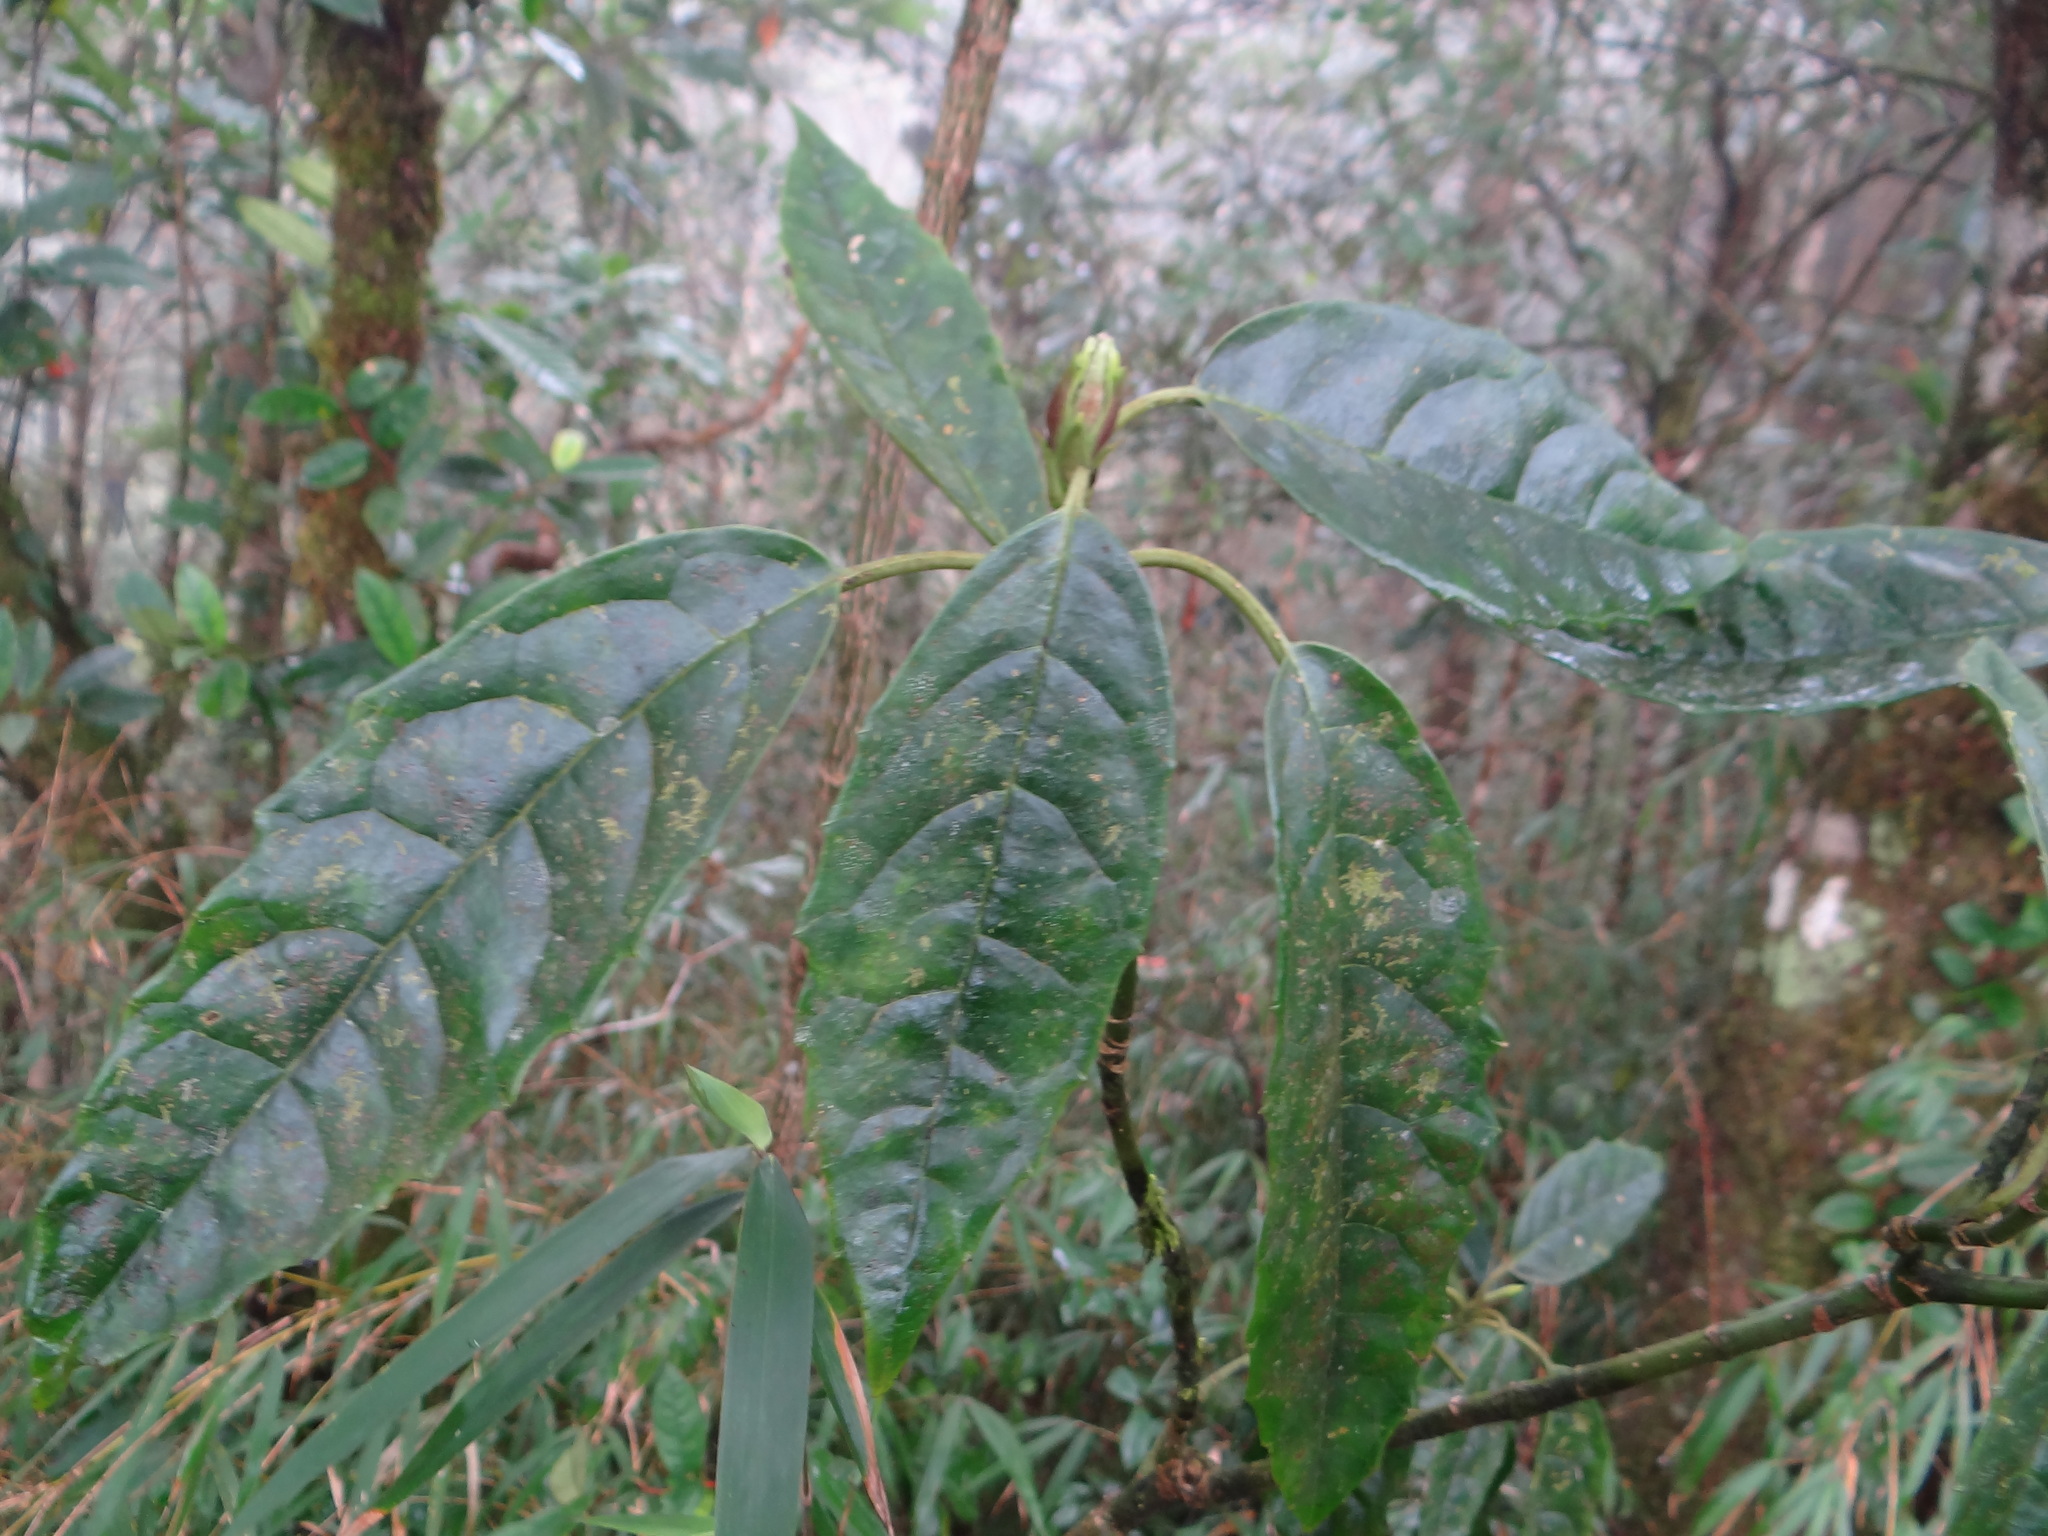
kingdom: Plantae
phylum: Tracheophyta
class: Magnoliopsida
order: Garryales
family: Garryaceae
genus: Aucuba
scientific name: Aucuba japonica
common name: Spotted-laurel
